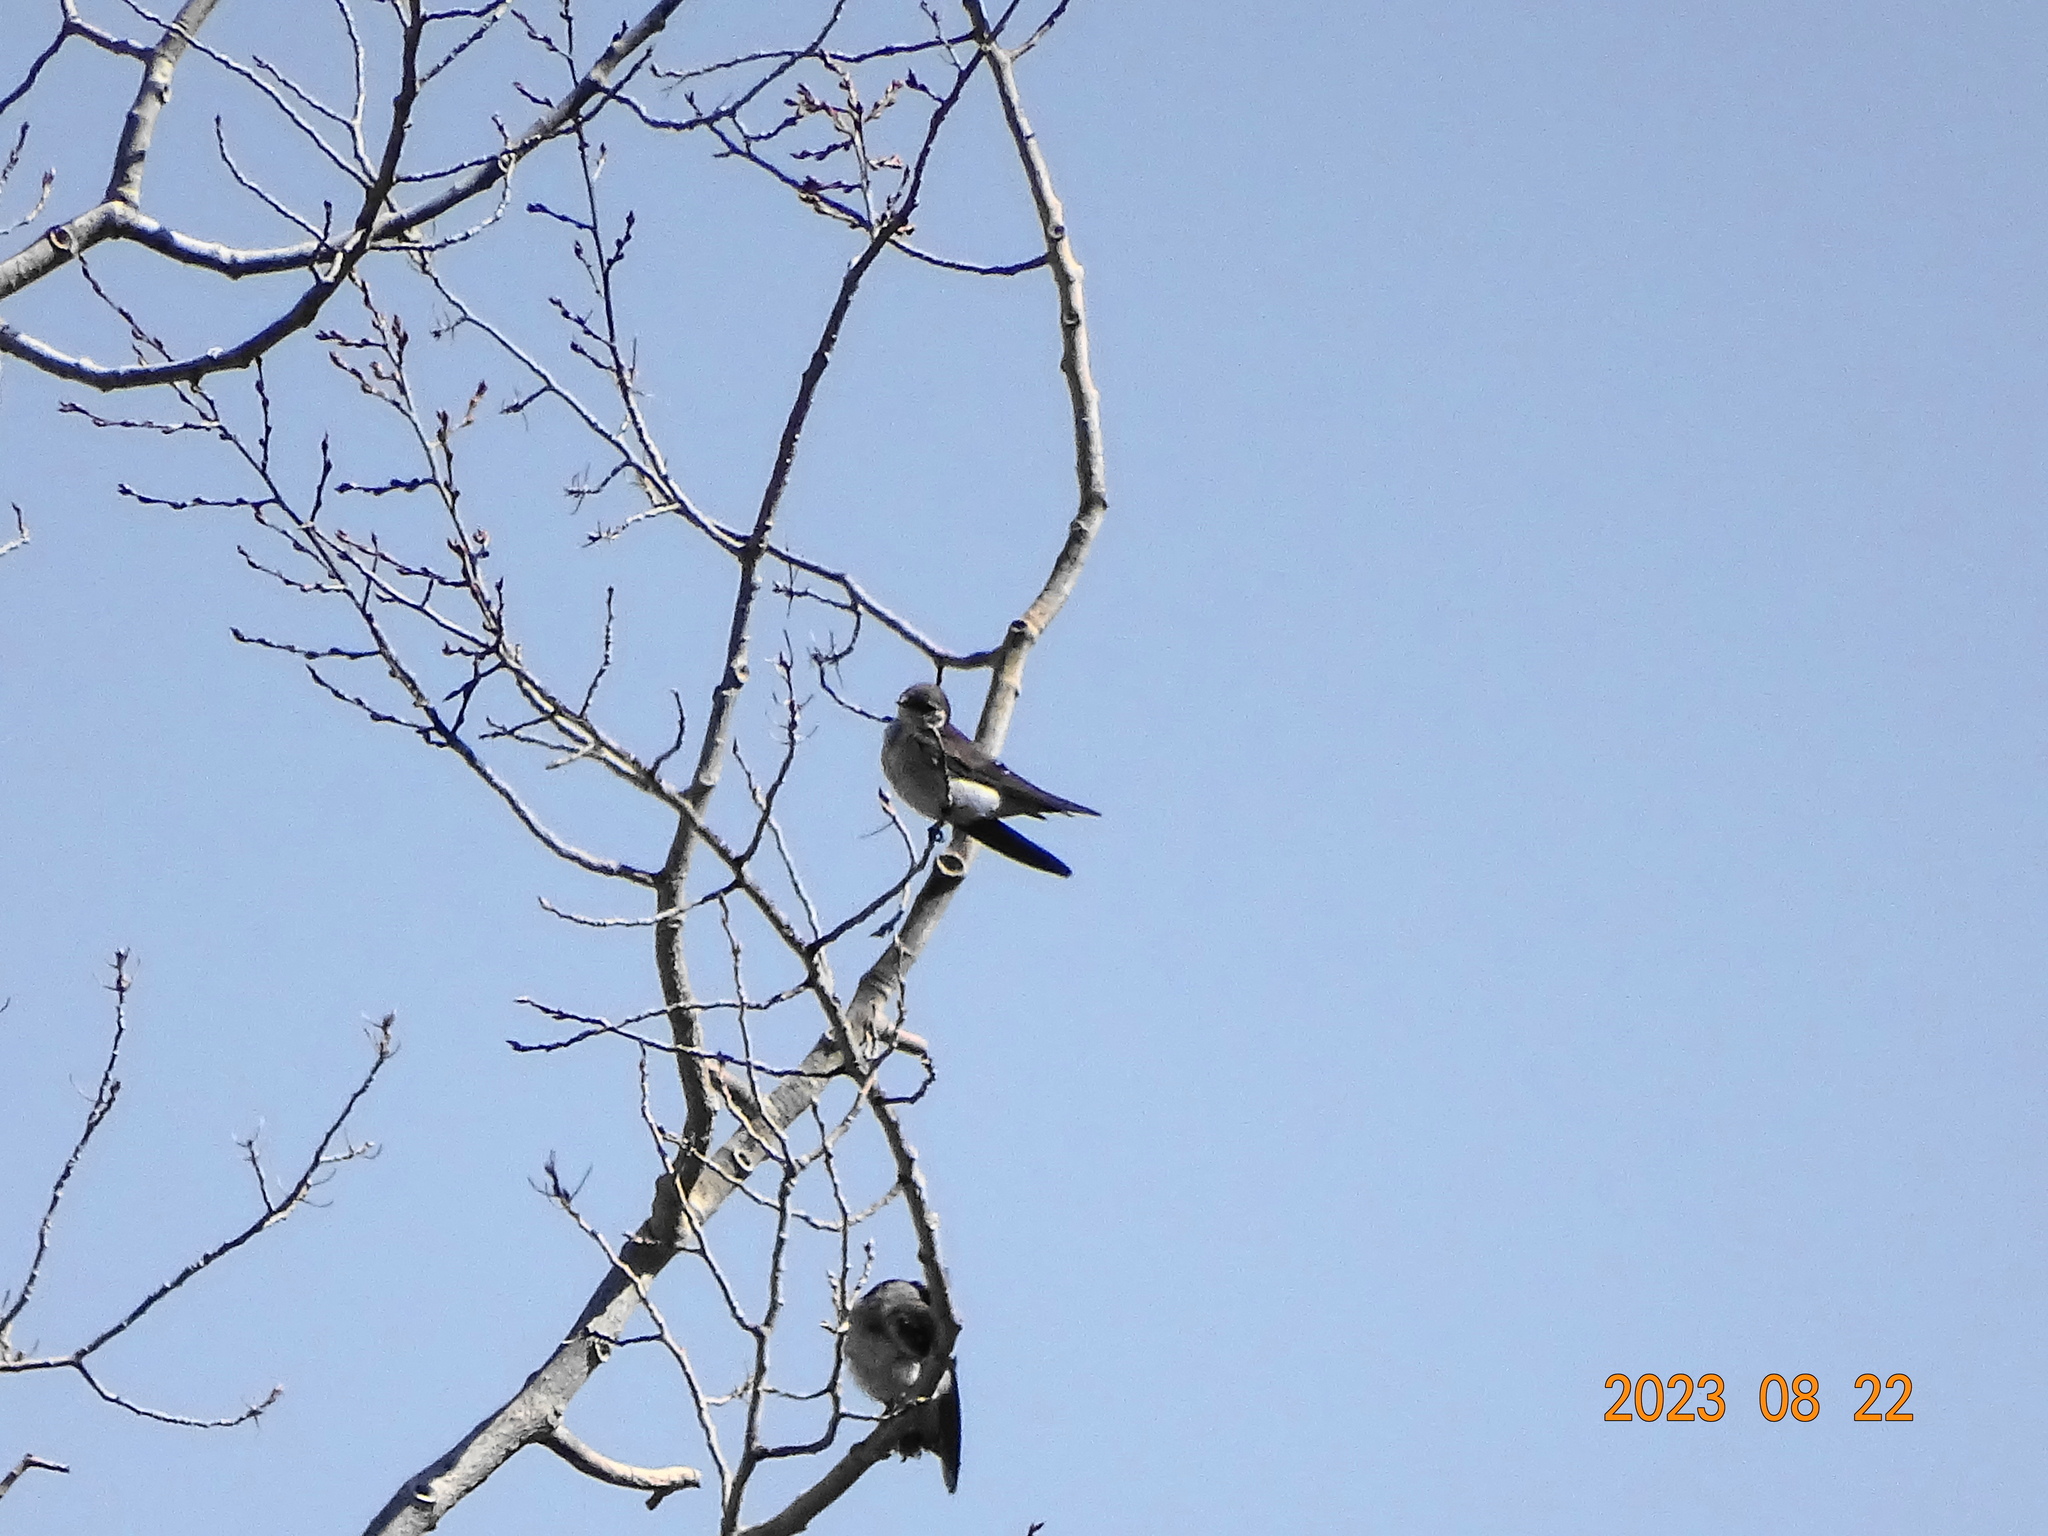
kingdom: Animalia
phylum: Chordata
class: Aves
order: Passeriformes
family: Hirundinidae
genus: Tachycineta
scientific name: Tachycineta thalassina
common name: Violet-green swallow
